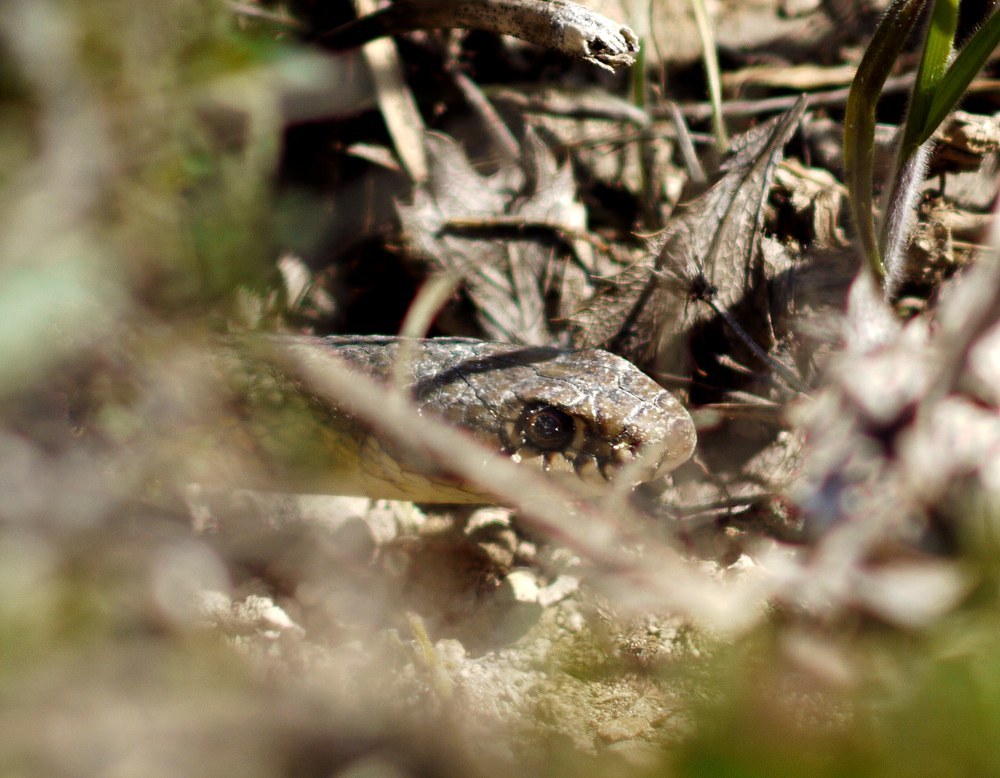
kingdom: Animalia
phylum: Chordata
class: Squamata
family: Colubridae
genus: Dolichophis
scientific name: Dolichophis caspius
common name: Large whip snake
